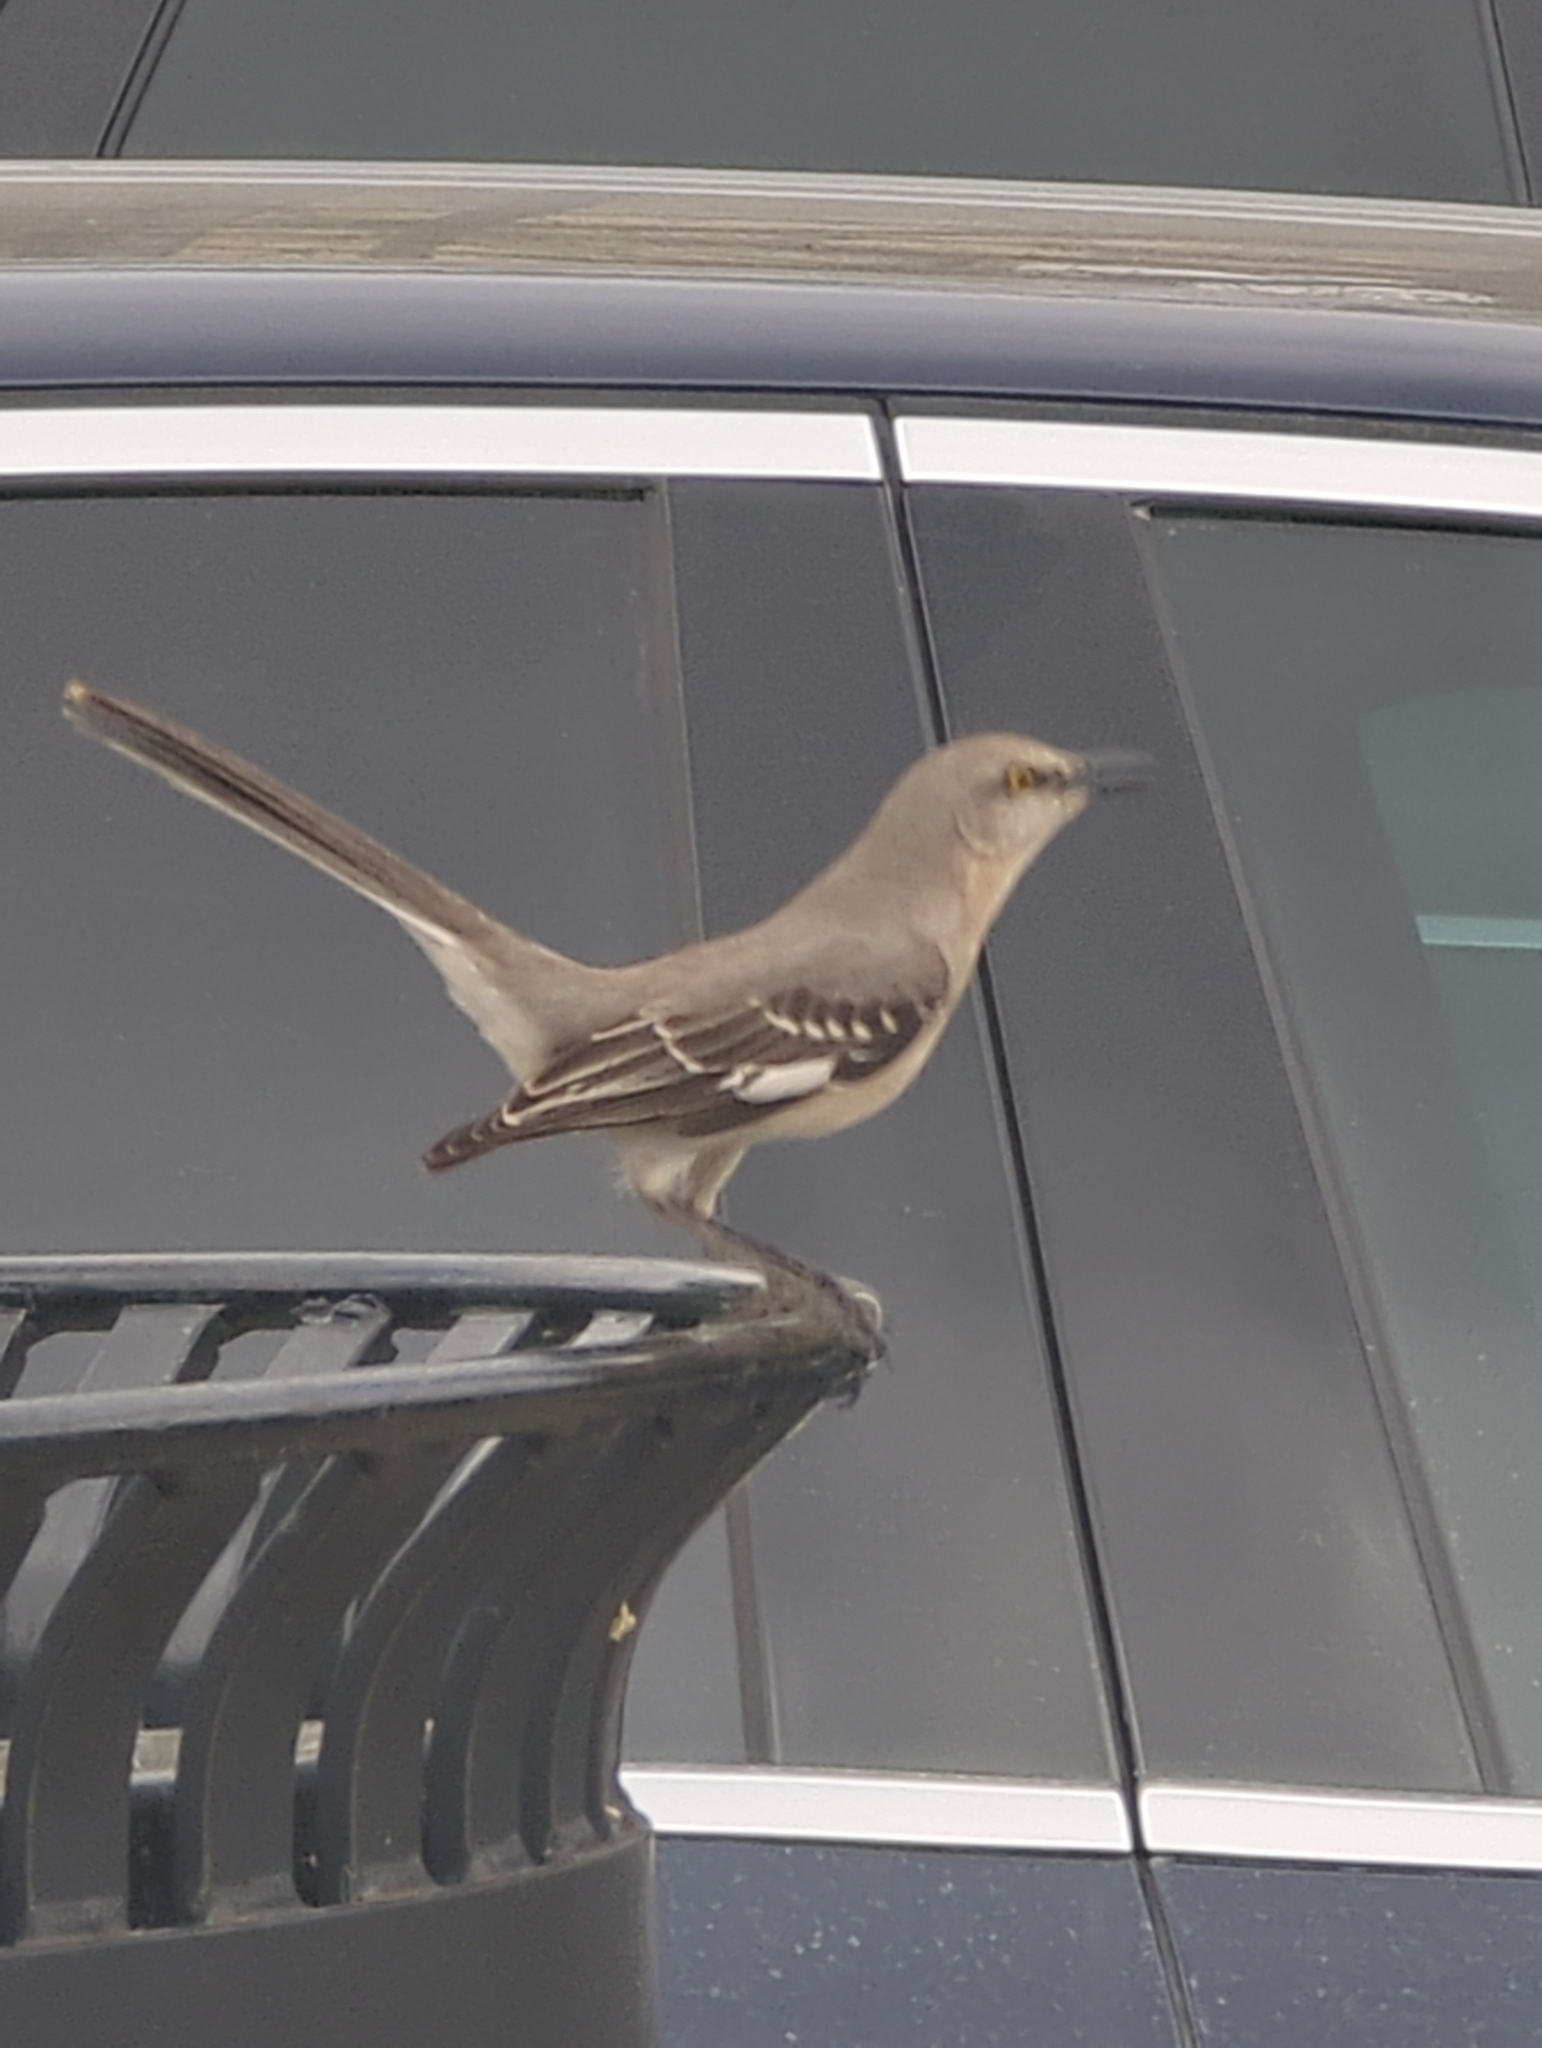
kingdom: Animalia
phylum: Chordata
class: Aves
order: Passeriformes
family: Mimidae
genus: Mimus
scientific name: Mimus polyglottos
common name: Northern mockingbird
